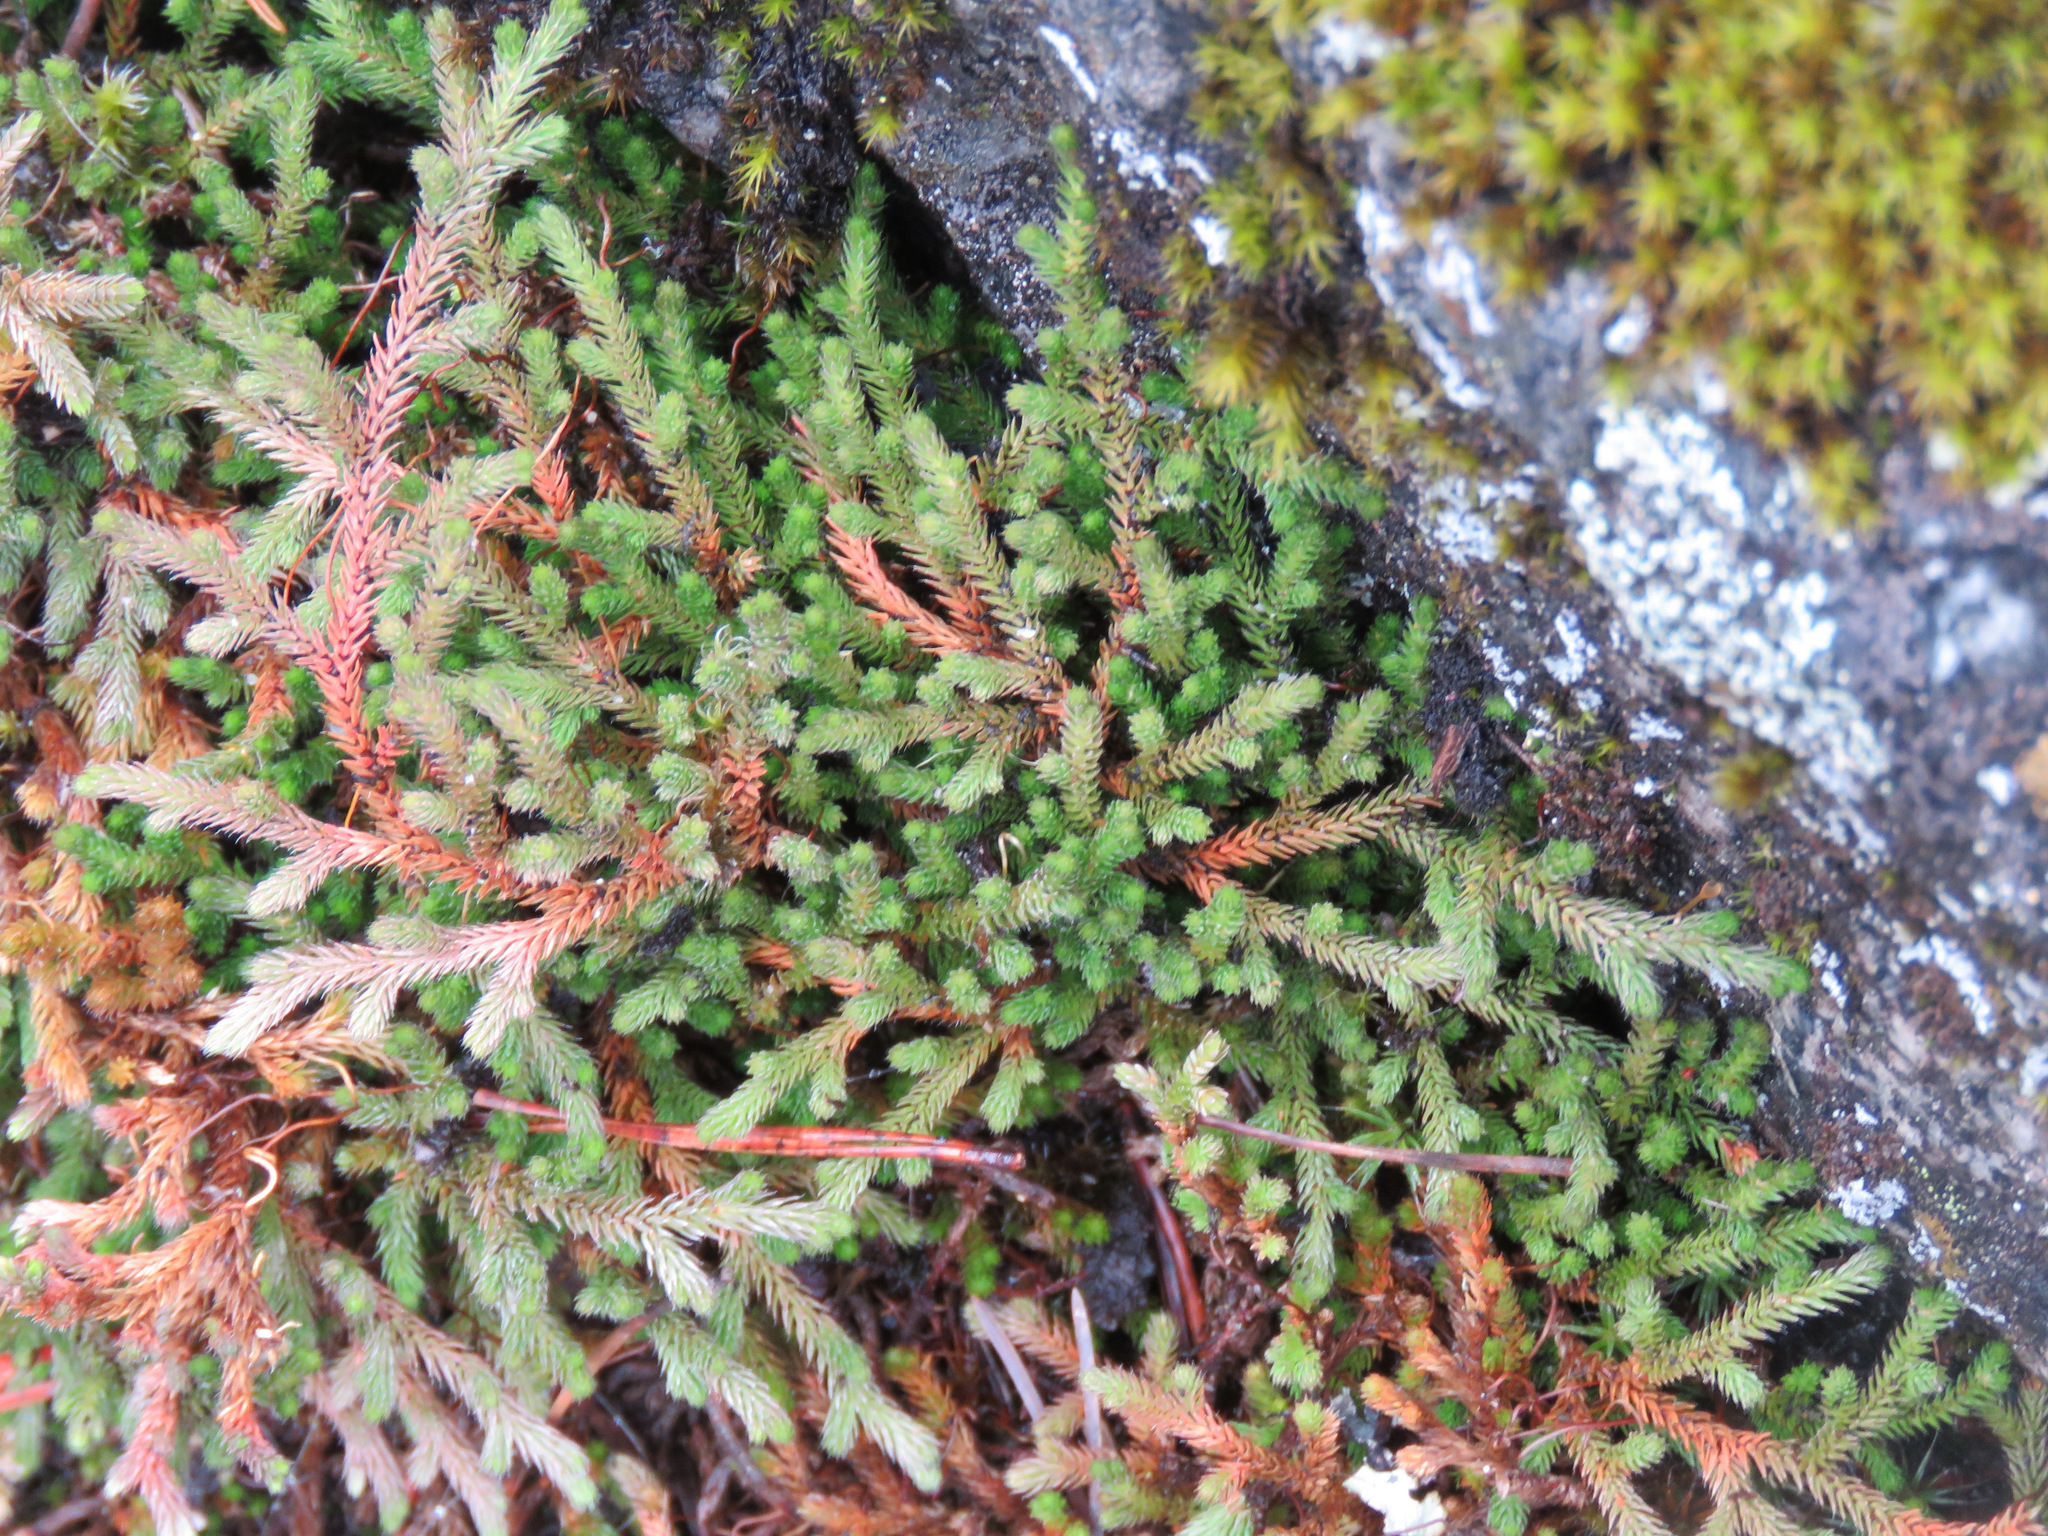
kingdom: Plantae
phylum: Tracheophyta
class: Lycopodiopsida
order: Selaginellales
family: Selaginellaceae
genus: Selaginella
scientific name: Selaginella wallacei
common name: Wallace's selaginella
